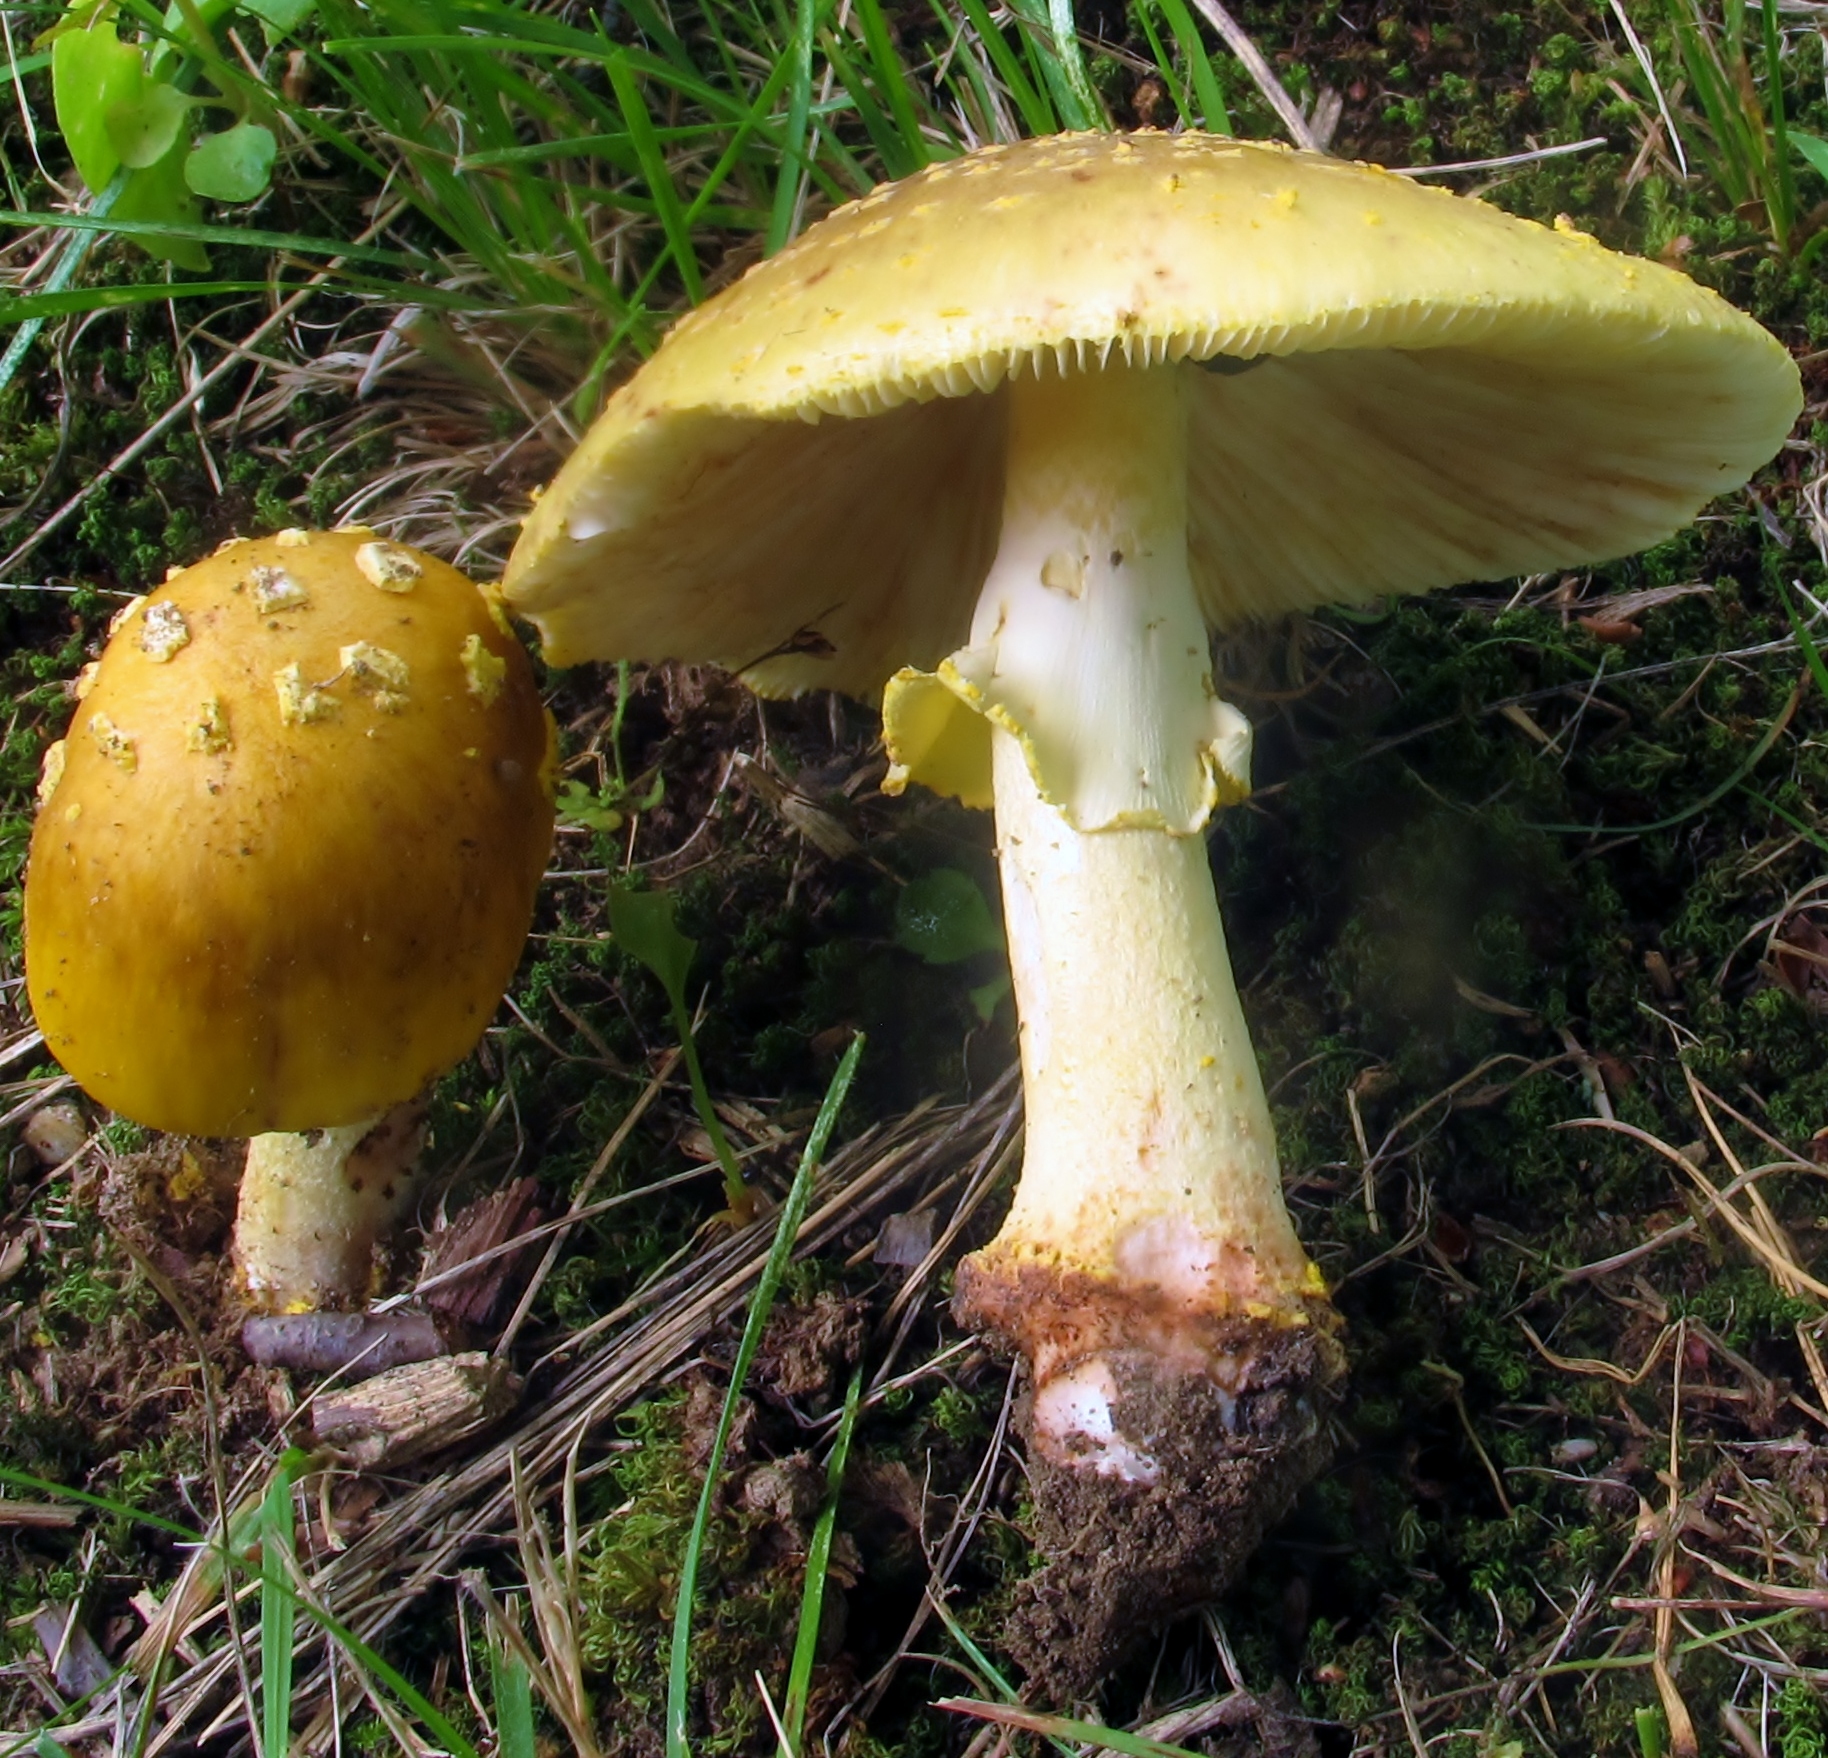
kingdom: Fungi
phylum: Basidiomycota
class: Agaricomycetes
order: Agaricales
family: Amanitaceae
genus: Amanita
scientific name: Amanita flavorubens
